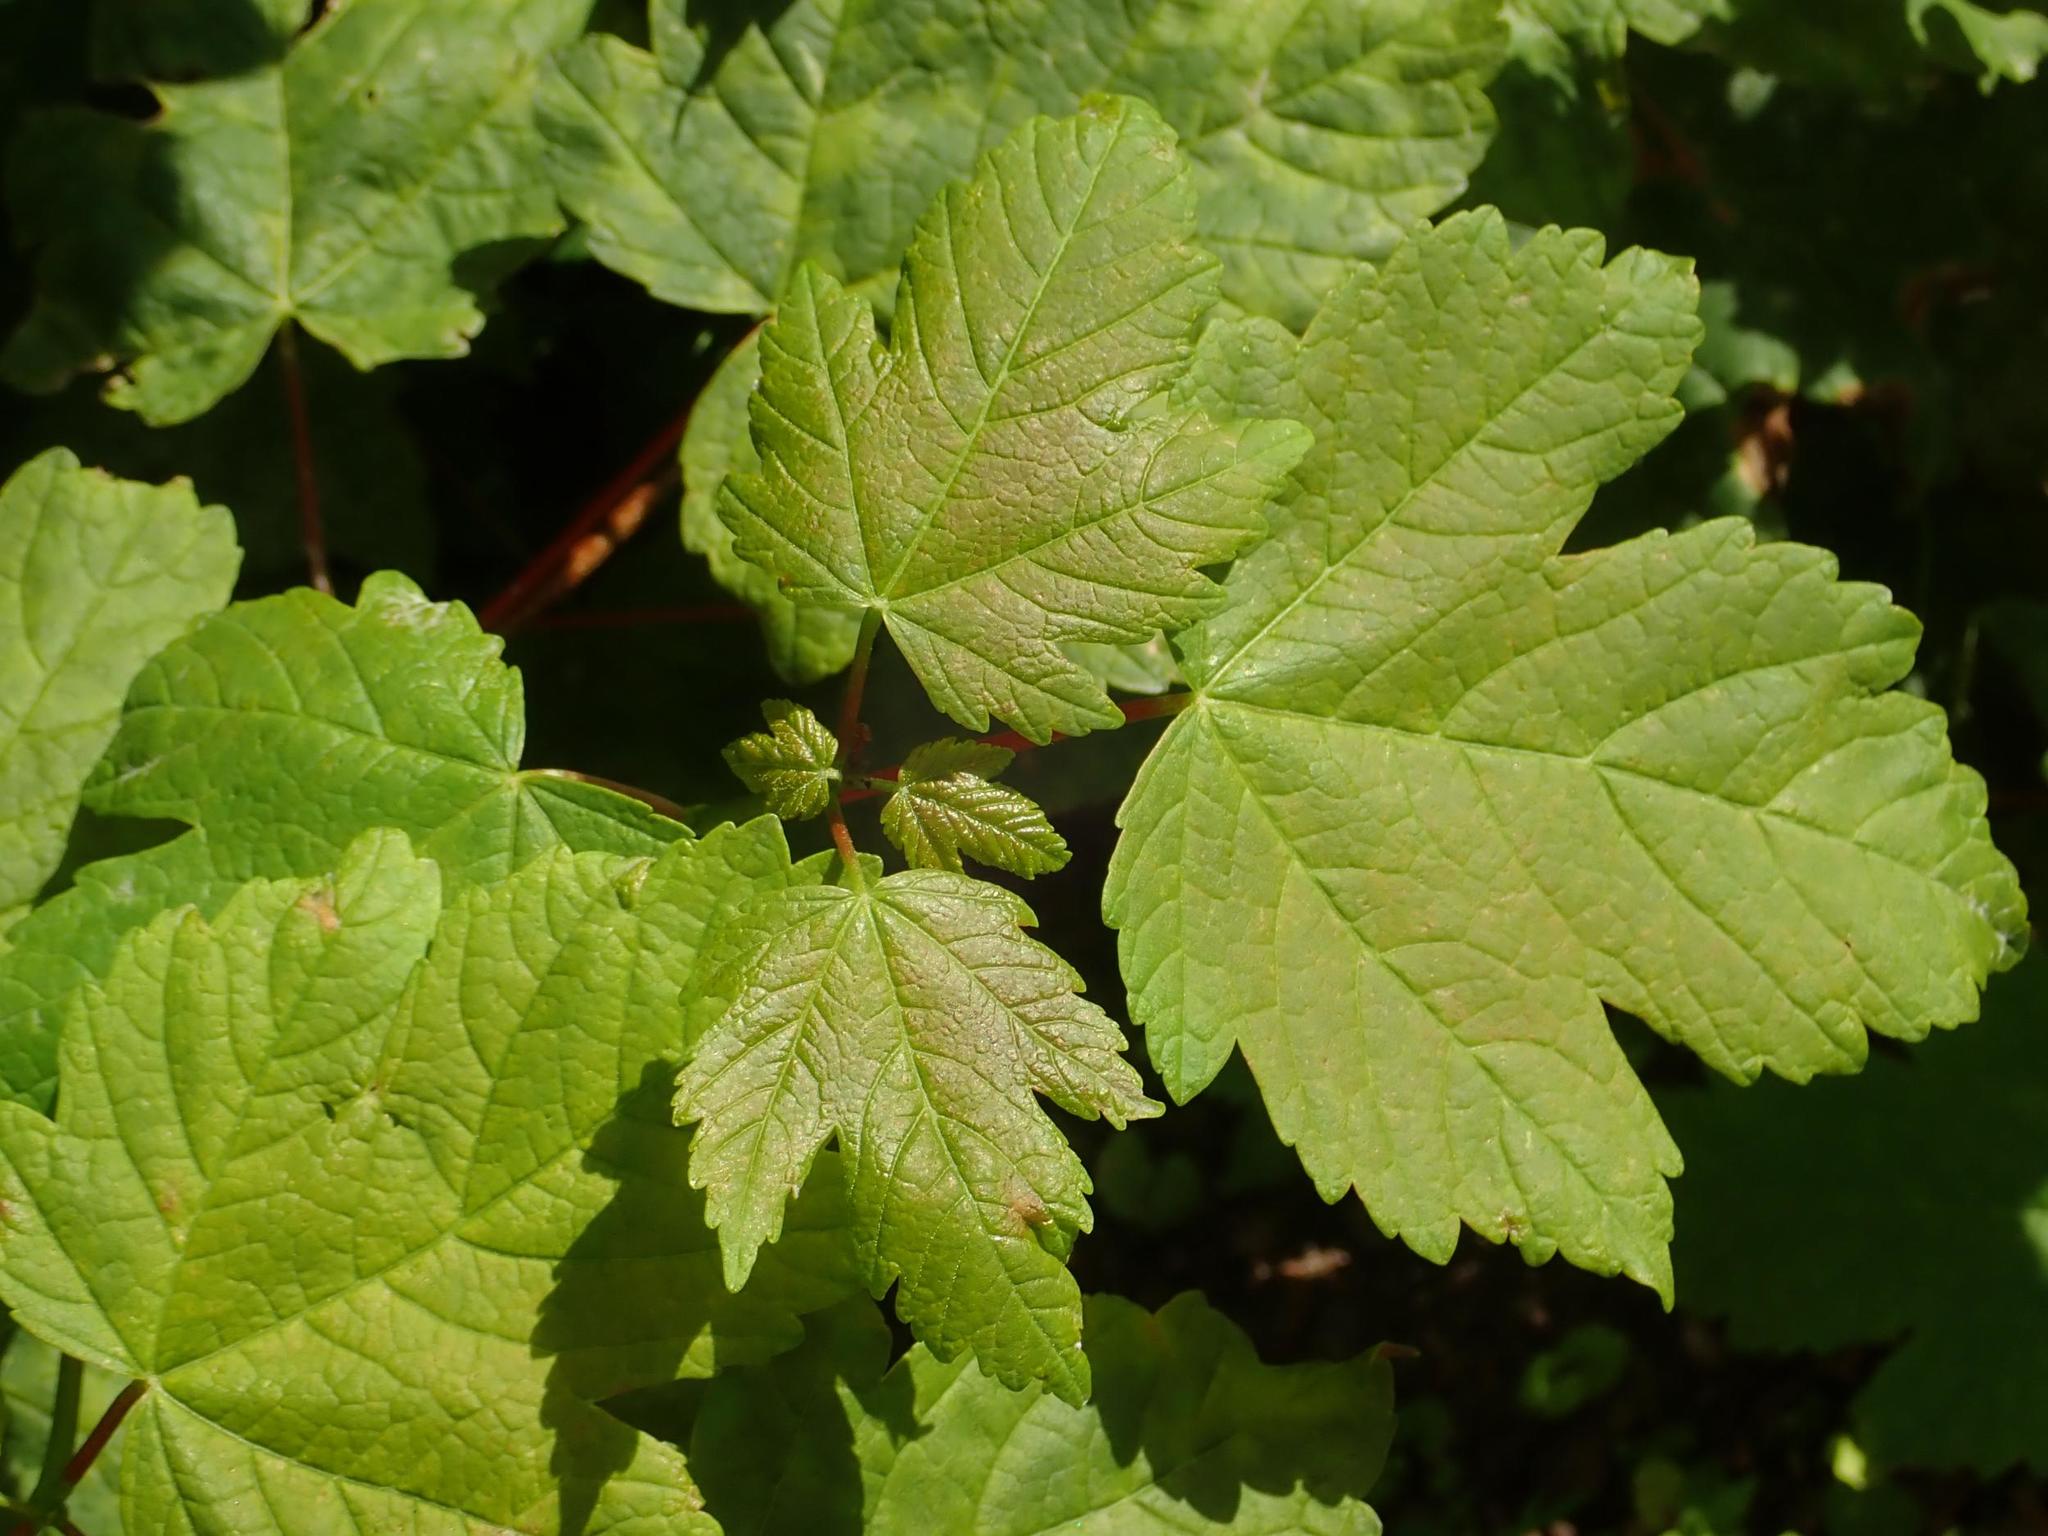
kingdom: Plantae
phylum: Tracheophyta
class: Magnoliopsida
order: Sapindales
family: Sapindaceae
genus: Acer
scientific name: Acer pseudoplatanus
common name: Sycamore
